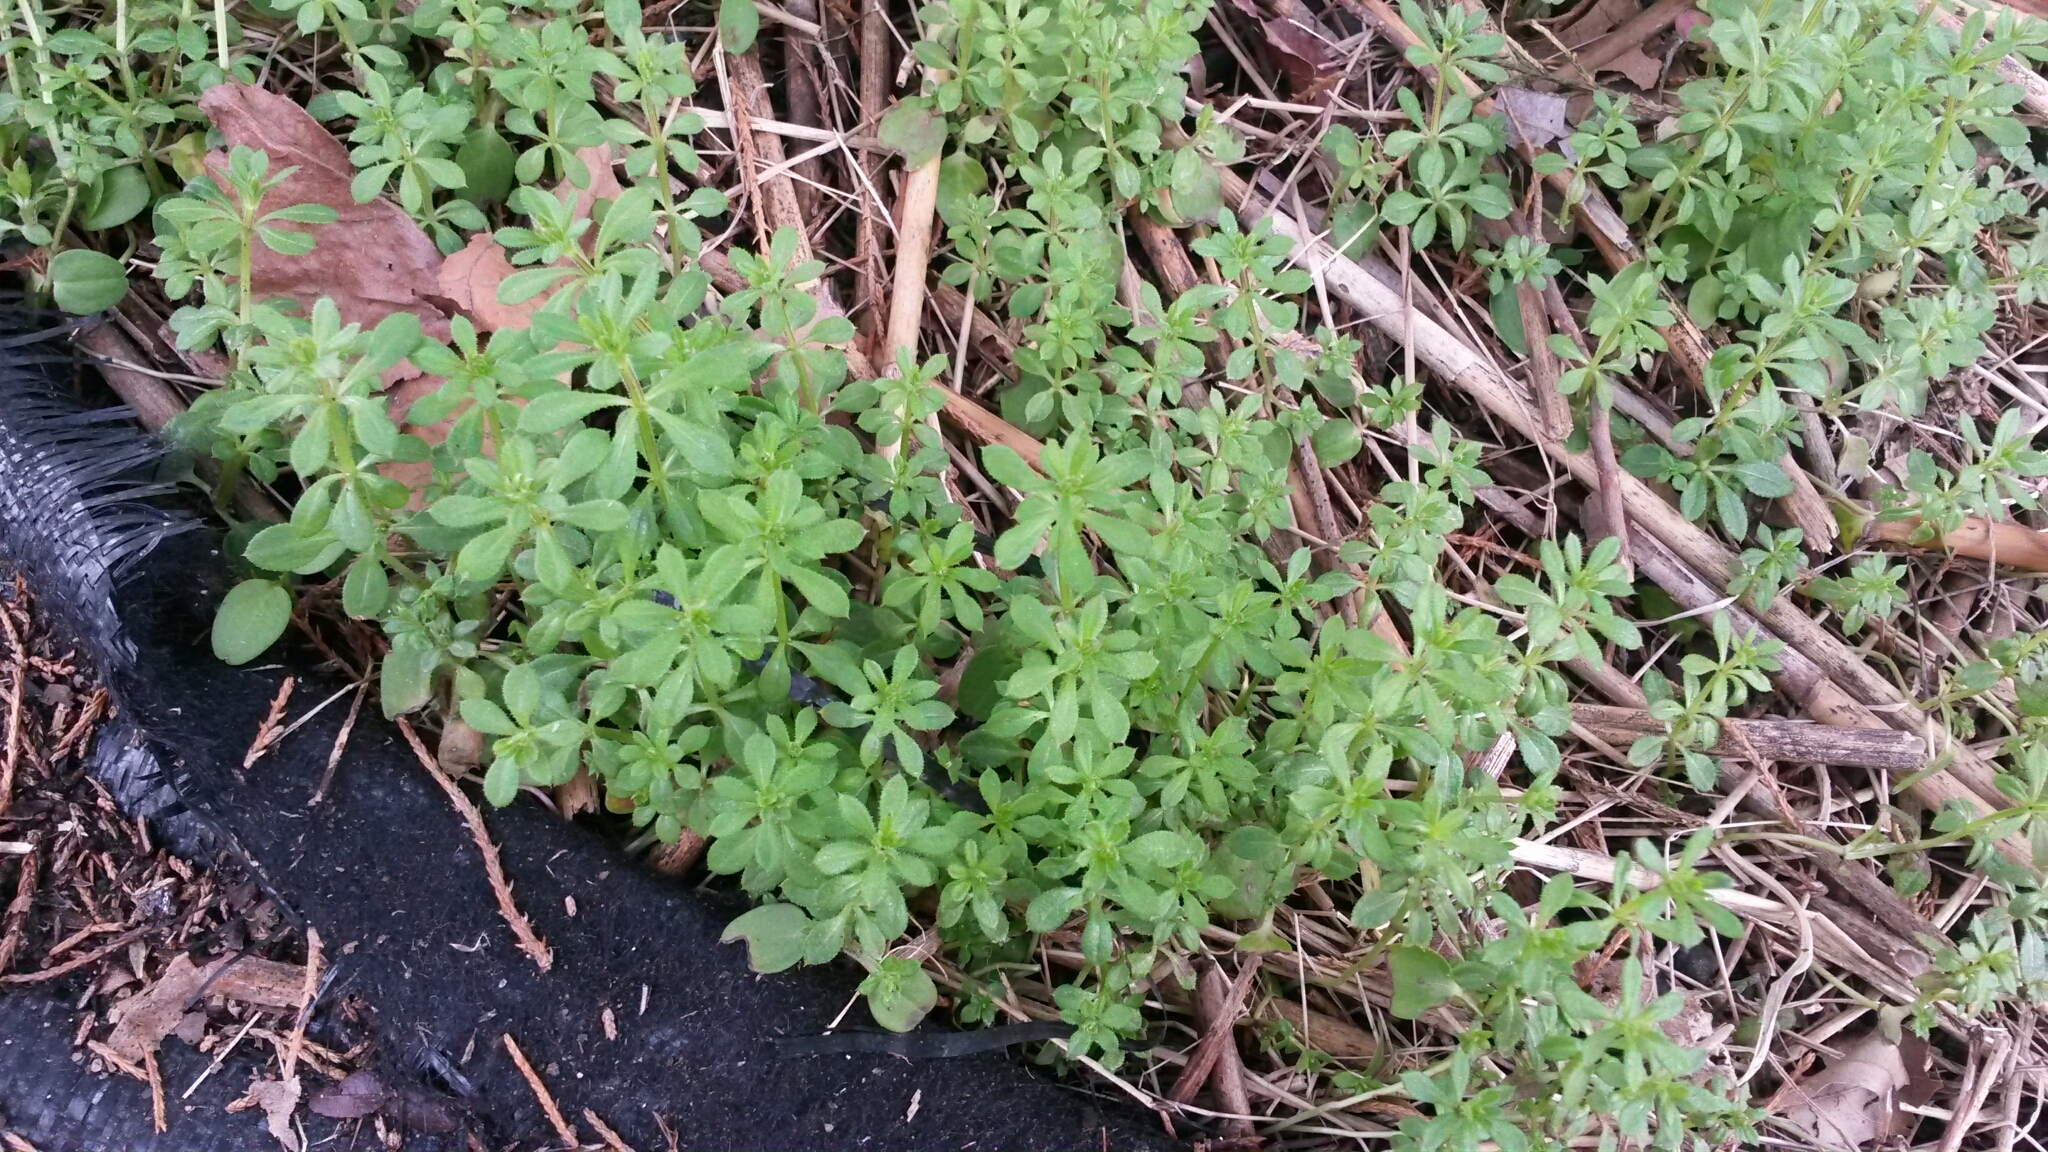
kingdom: Plantae
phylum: Tracheophyta
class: Magnoliopsida
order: Gentianales
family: Rubiaceae
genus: Galium
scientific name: Galium aparine
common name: Cleavers
